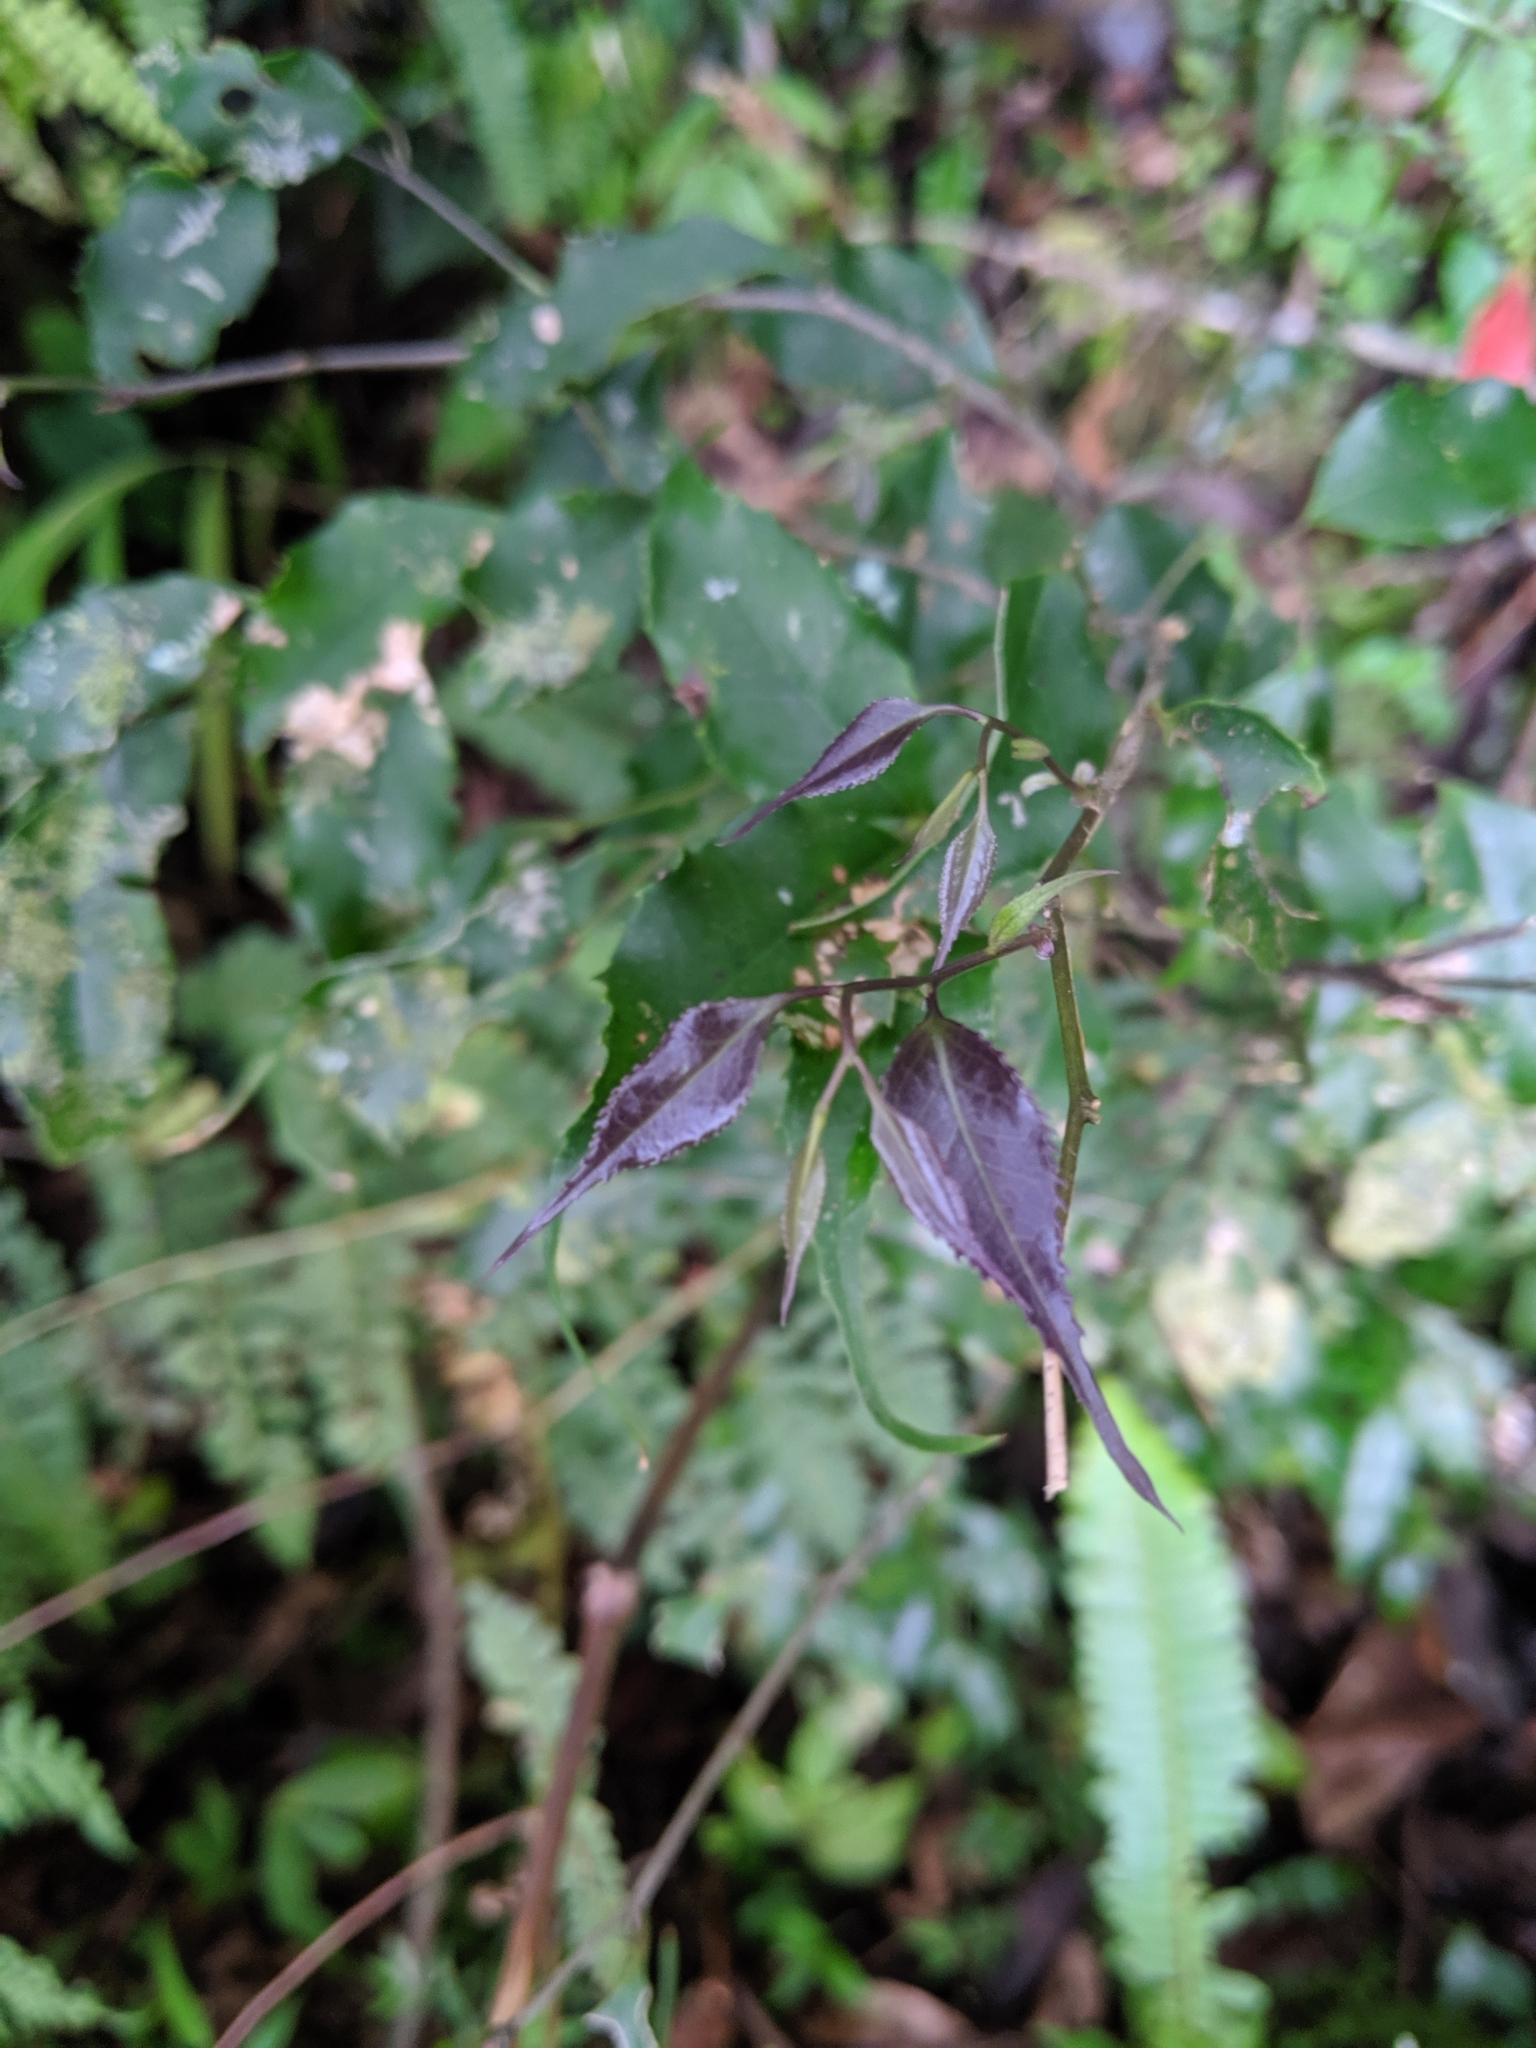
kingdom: Plantae
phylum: Tracheophyta
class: Magnoliopsida
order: Ericales
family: Symplocaceae
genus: Symplocos
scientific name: Symplocos sumuntia
